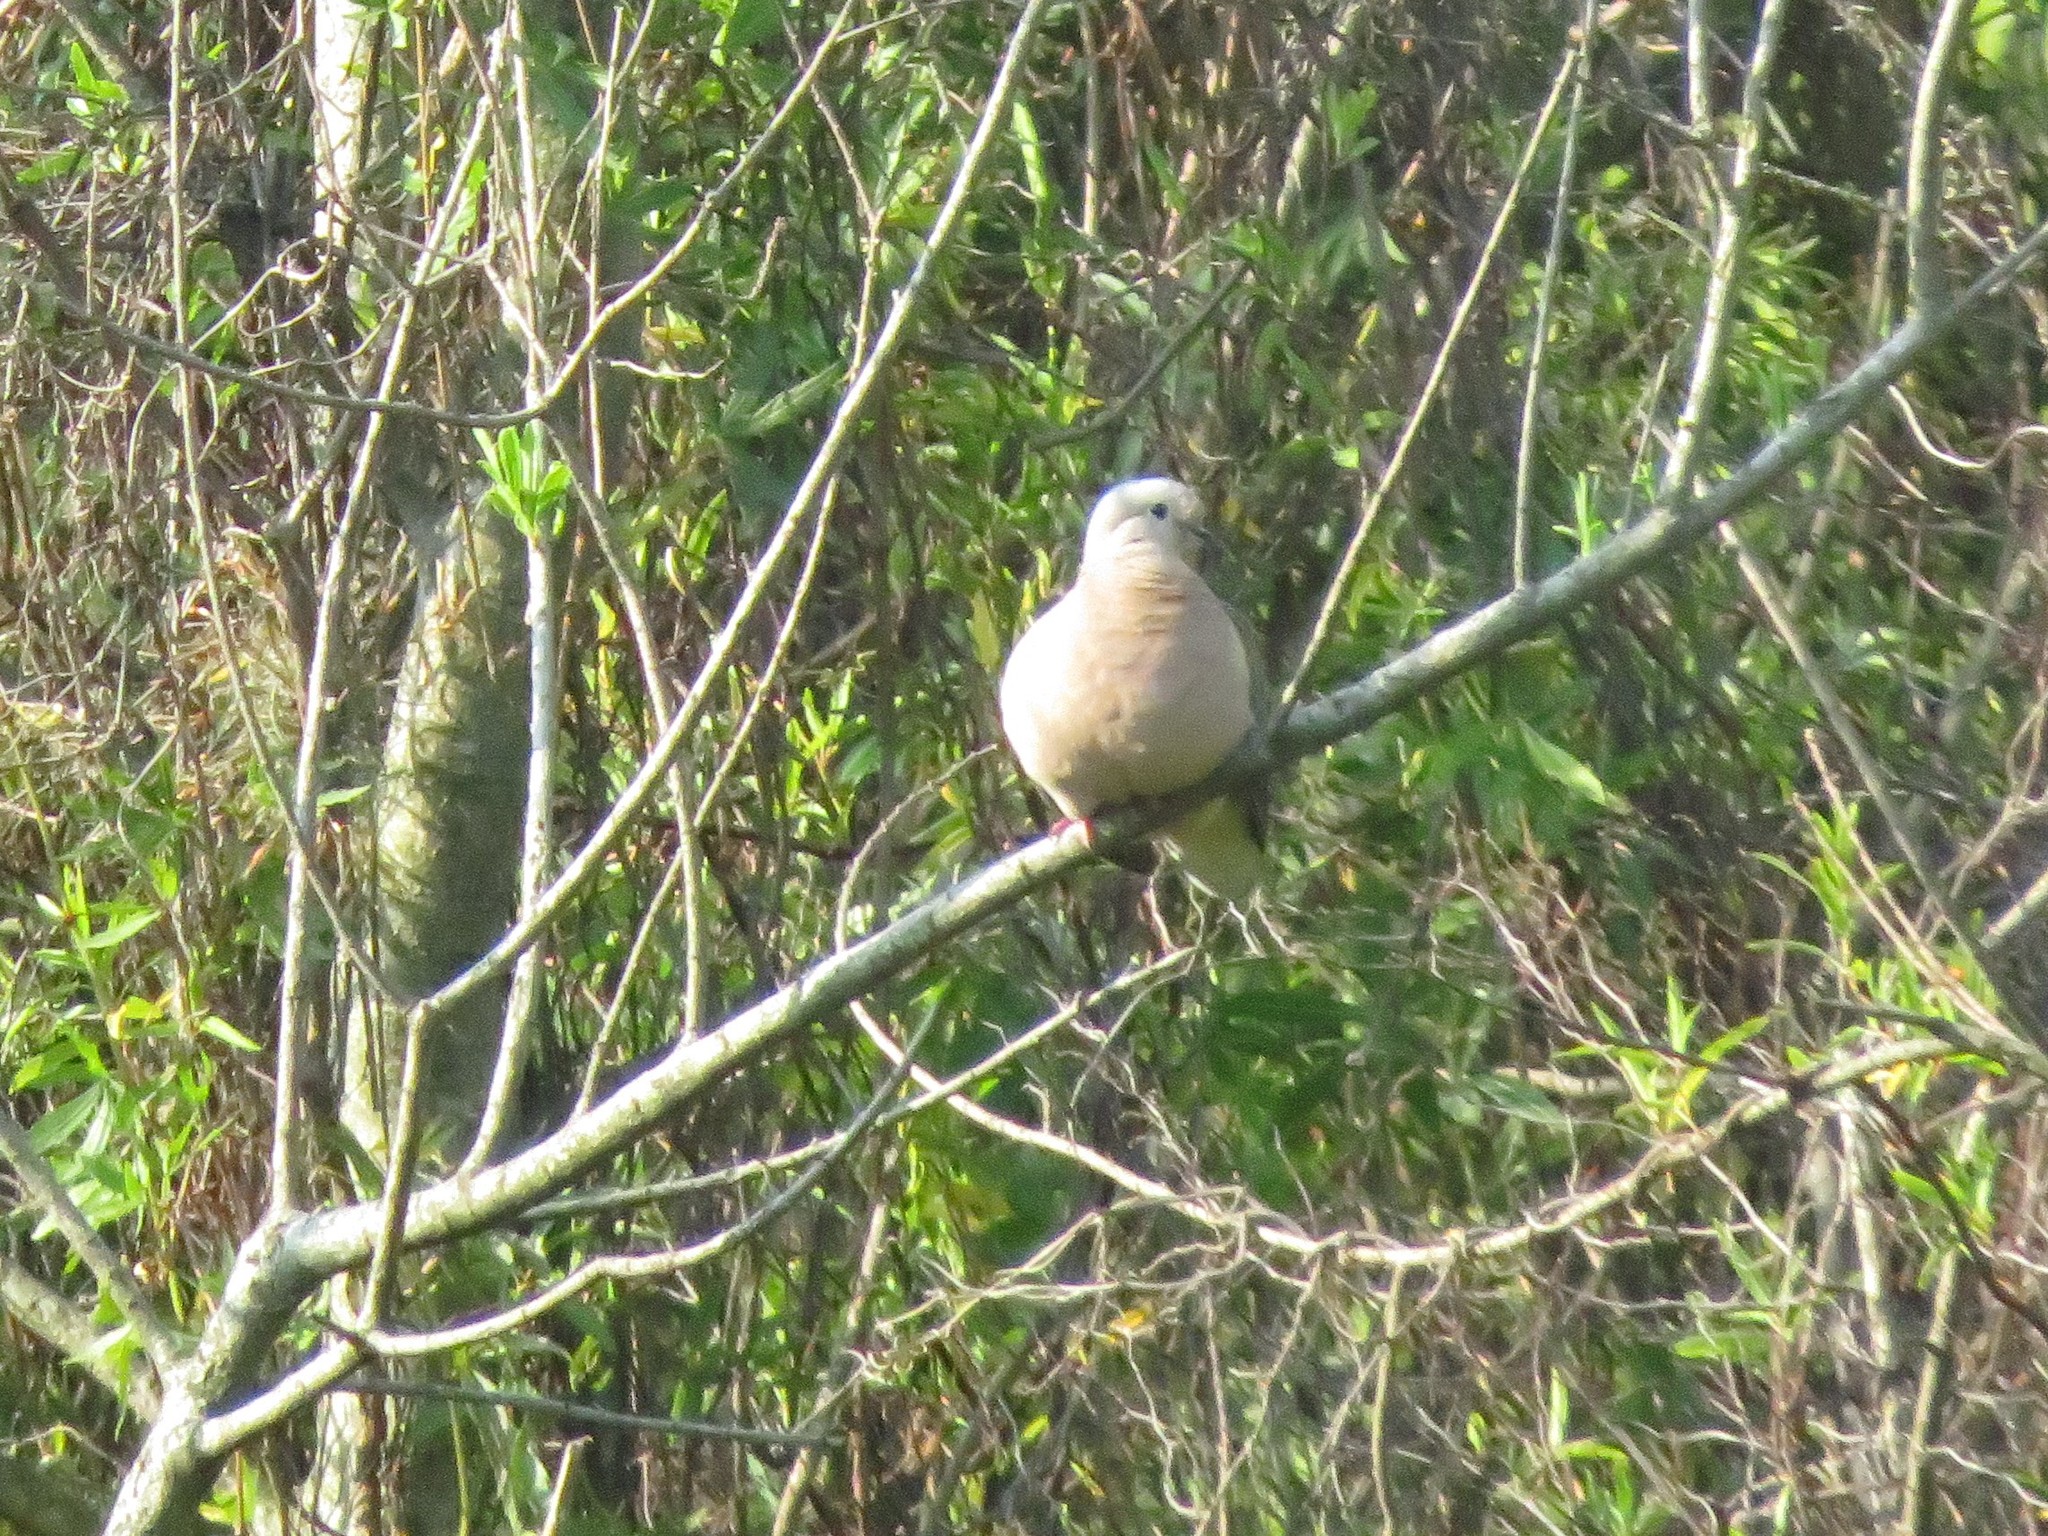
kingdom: Animalia
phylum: Chordata
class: Aves
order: Columbiformes
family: Columbidae
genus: Zenaida
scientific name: Zenaida auriculata
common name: Eared dove
